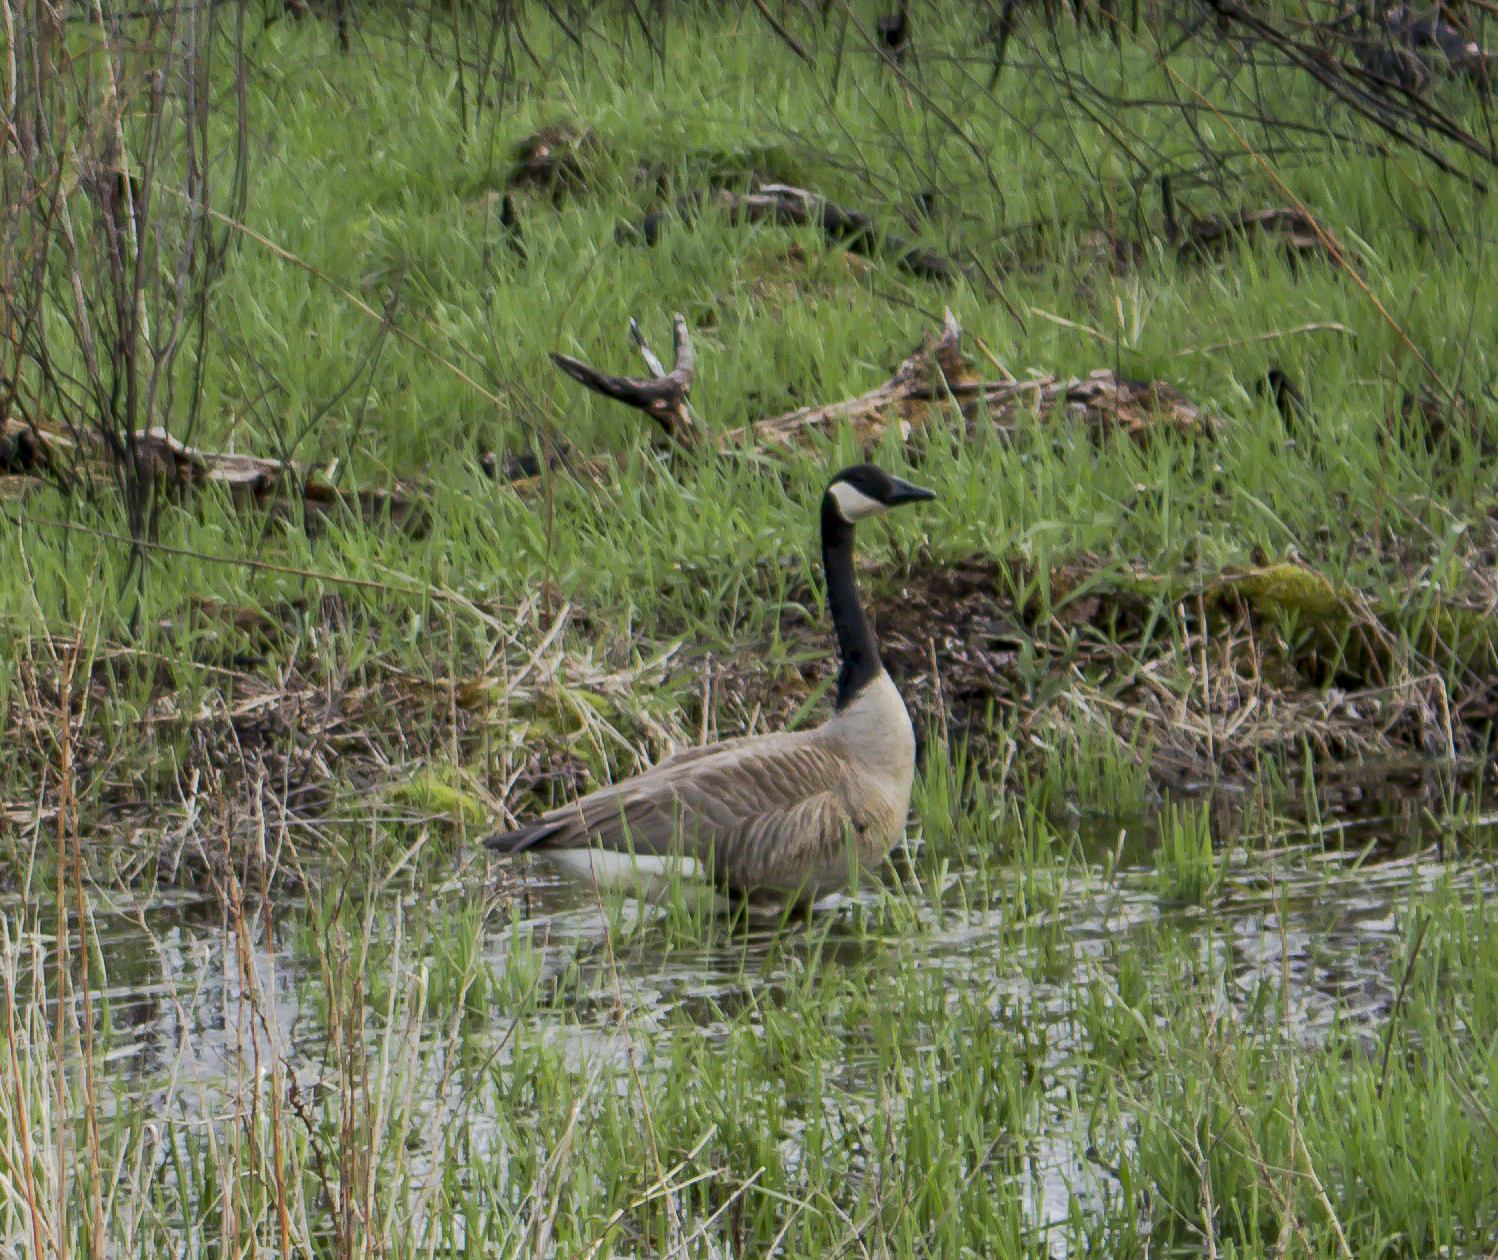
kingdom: Animalia
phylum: Chordata
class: Aves
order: Anseriformes
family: Anatidae
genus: Branta
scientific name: Branta canadensis
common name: Canada goose
